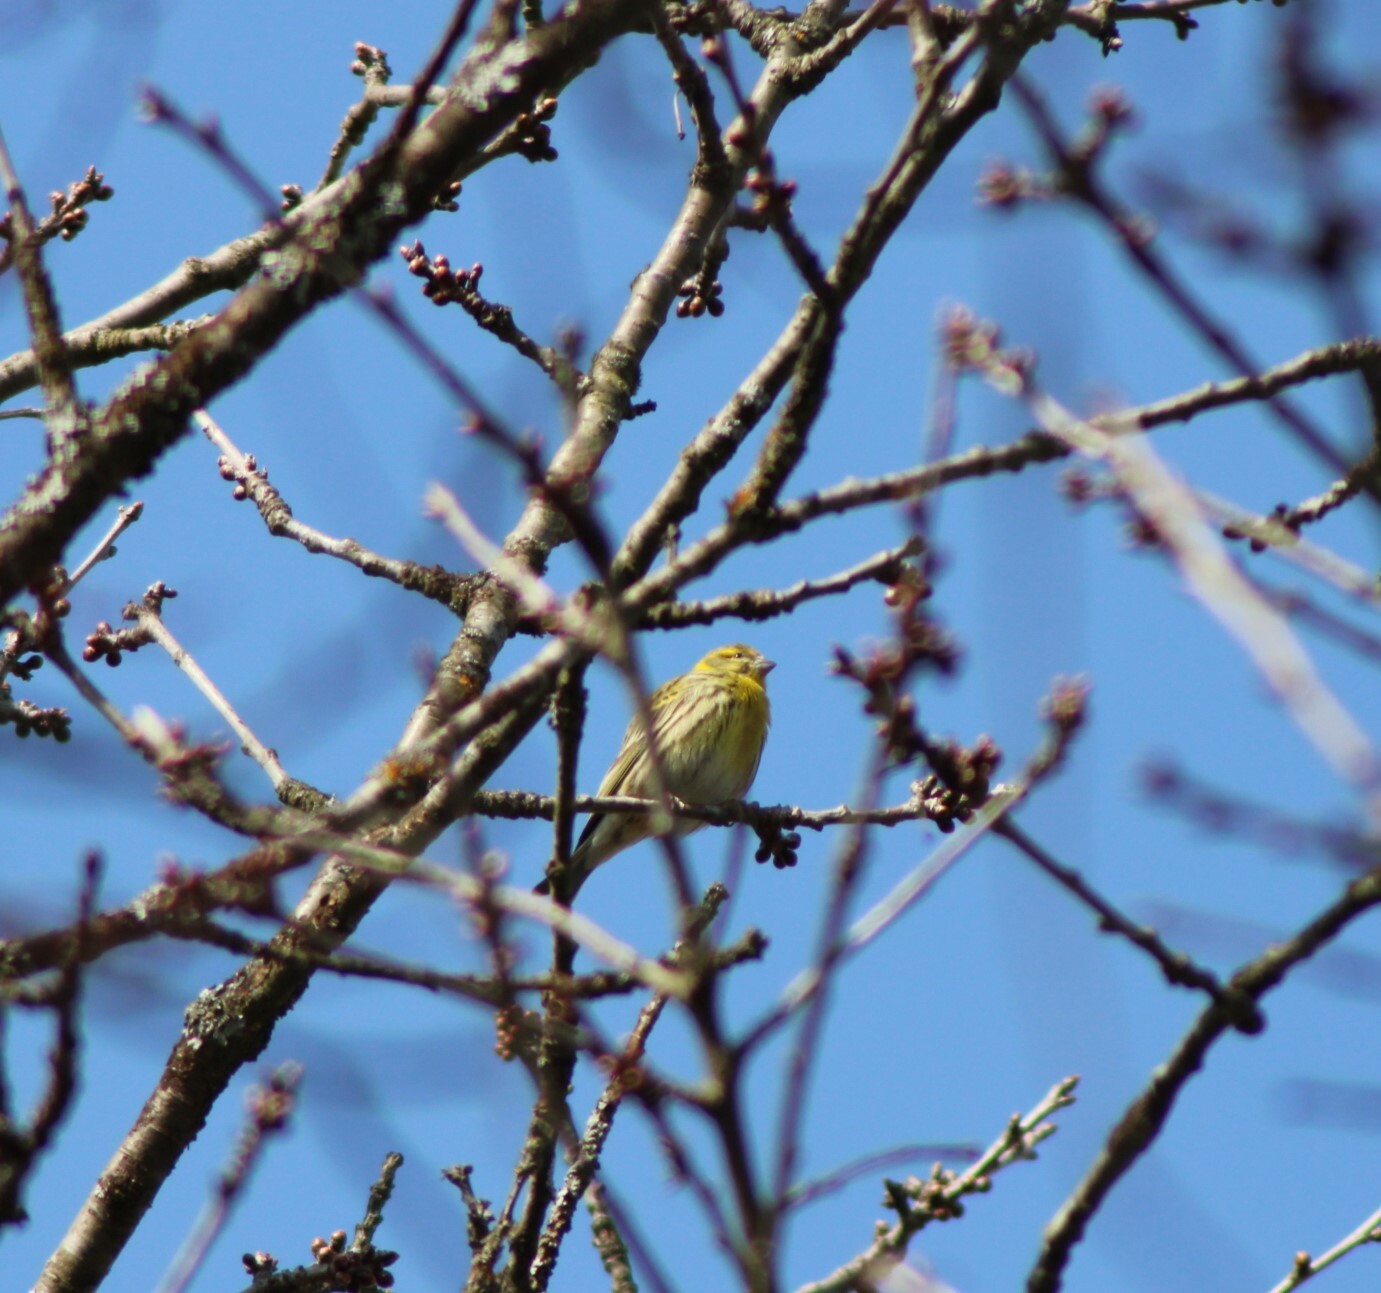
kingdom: Animalia
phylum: Chordata
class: Aves
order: Passeriformes
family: Fringillidae
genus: Serinus
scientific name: Serinus serinus
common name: European serin
